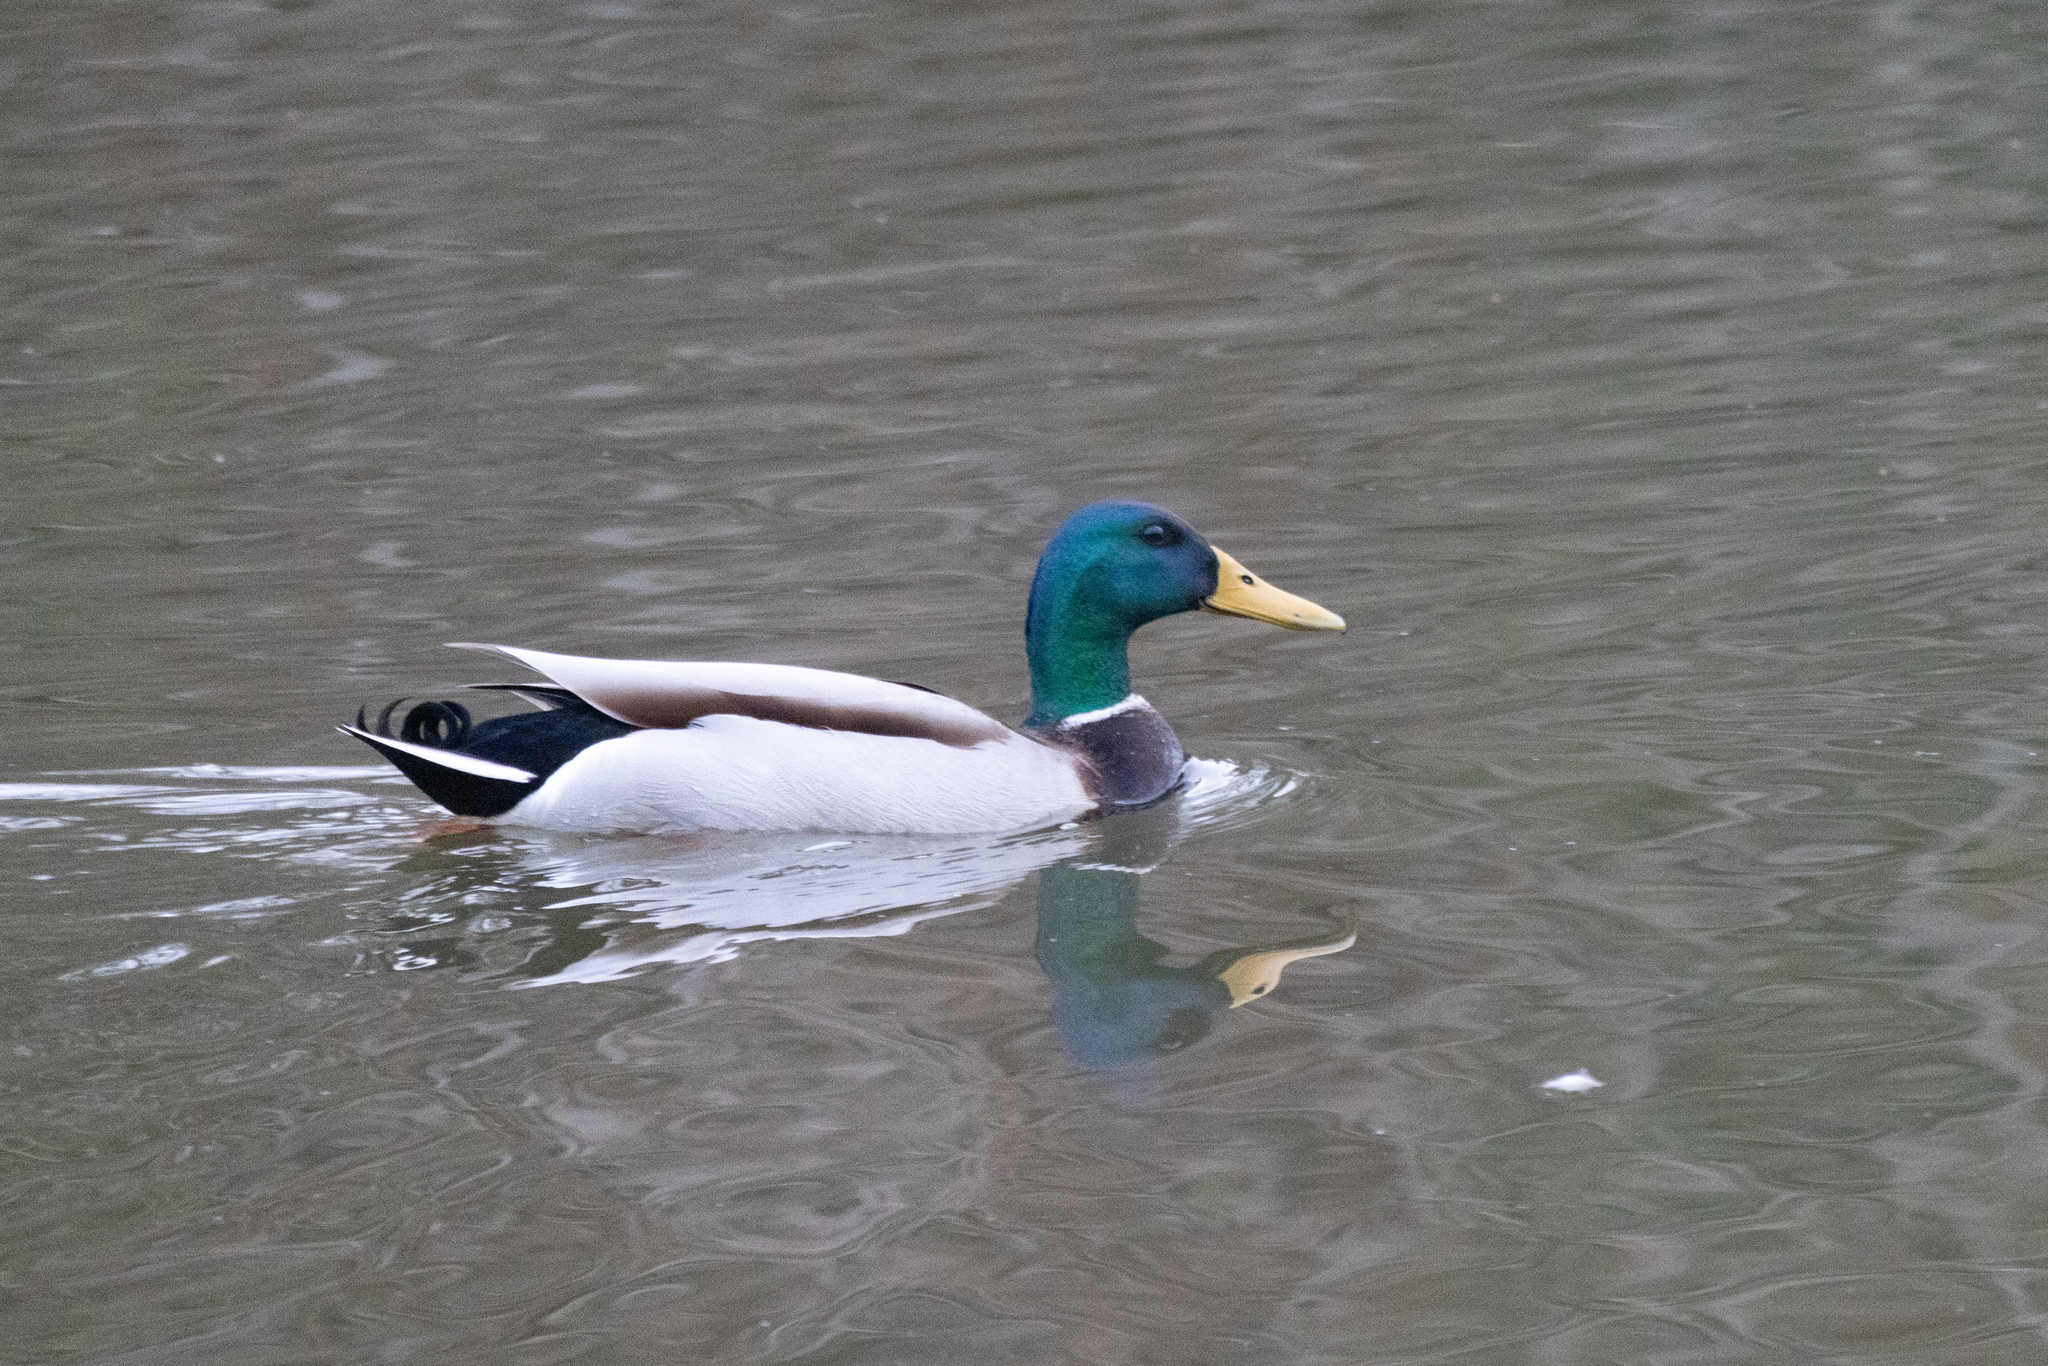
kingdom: Animalia
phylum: Chordata
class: Aves
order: Anseriformes
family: Anatidae
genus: Anas
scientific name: Anas platyrhynchos
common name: Mallard
